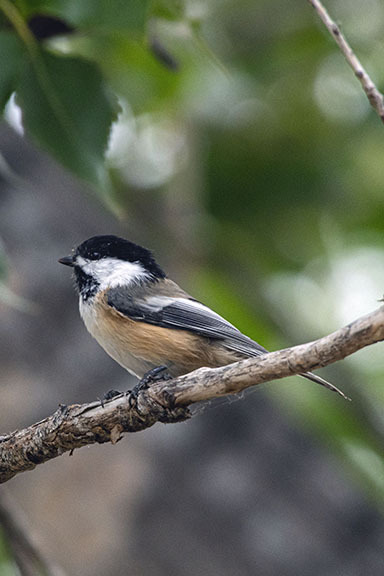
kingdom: Animalia
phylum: Chordata
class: Aves
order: Passeriformes
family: Paridae
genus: Poecile
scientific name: Poecile atricapillus
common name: Black-capped chickadee
